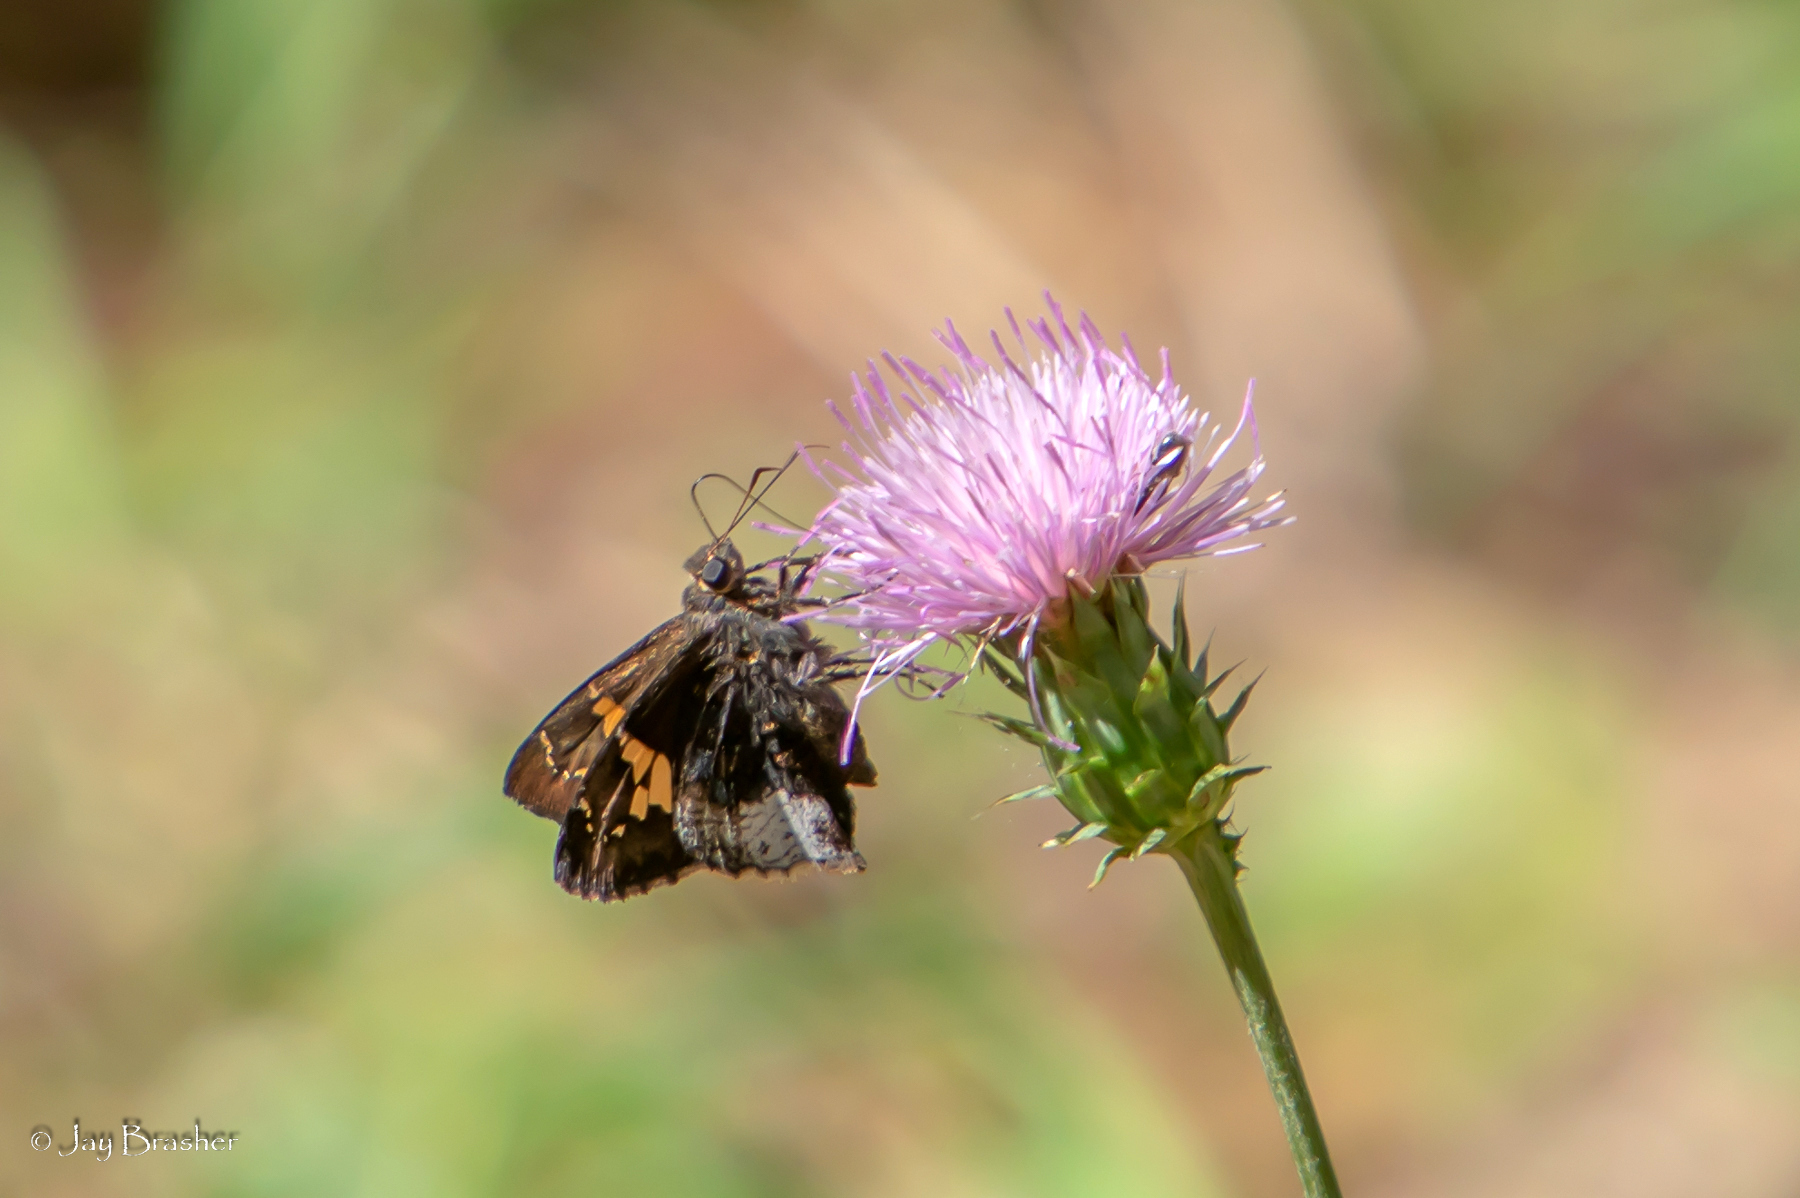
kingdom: Animalia
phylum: Arthropoda
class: Insecta
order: Lepidoptera
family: Hesperiidae
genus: Thorybes
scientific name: Thorybes lyciades
